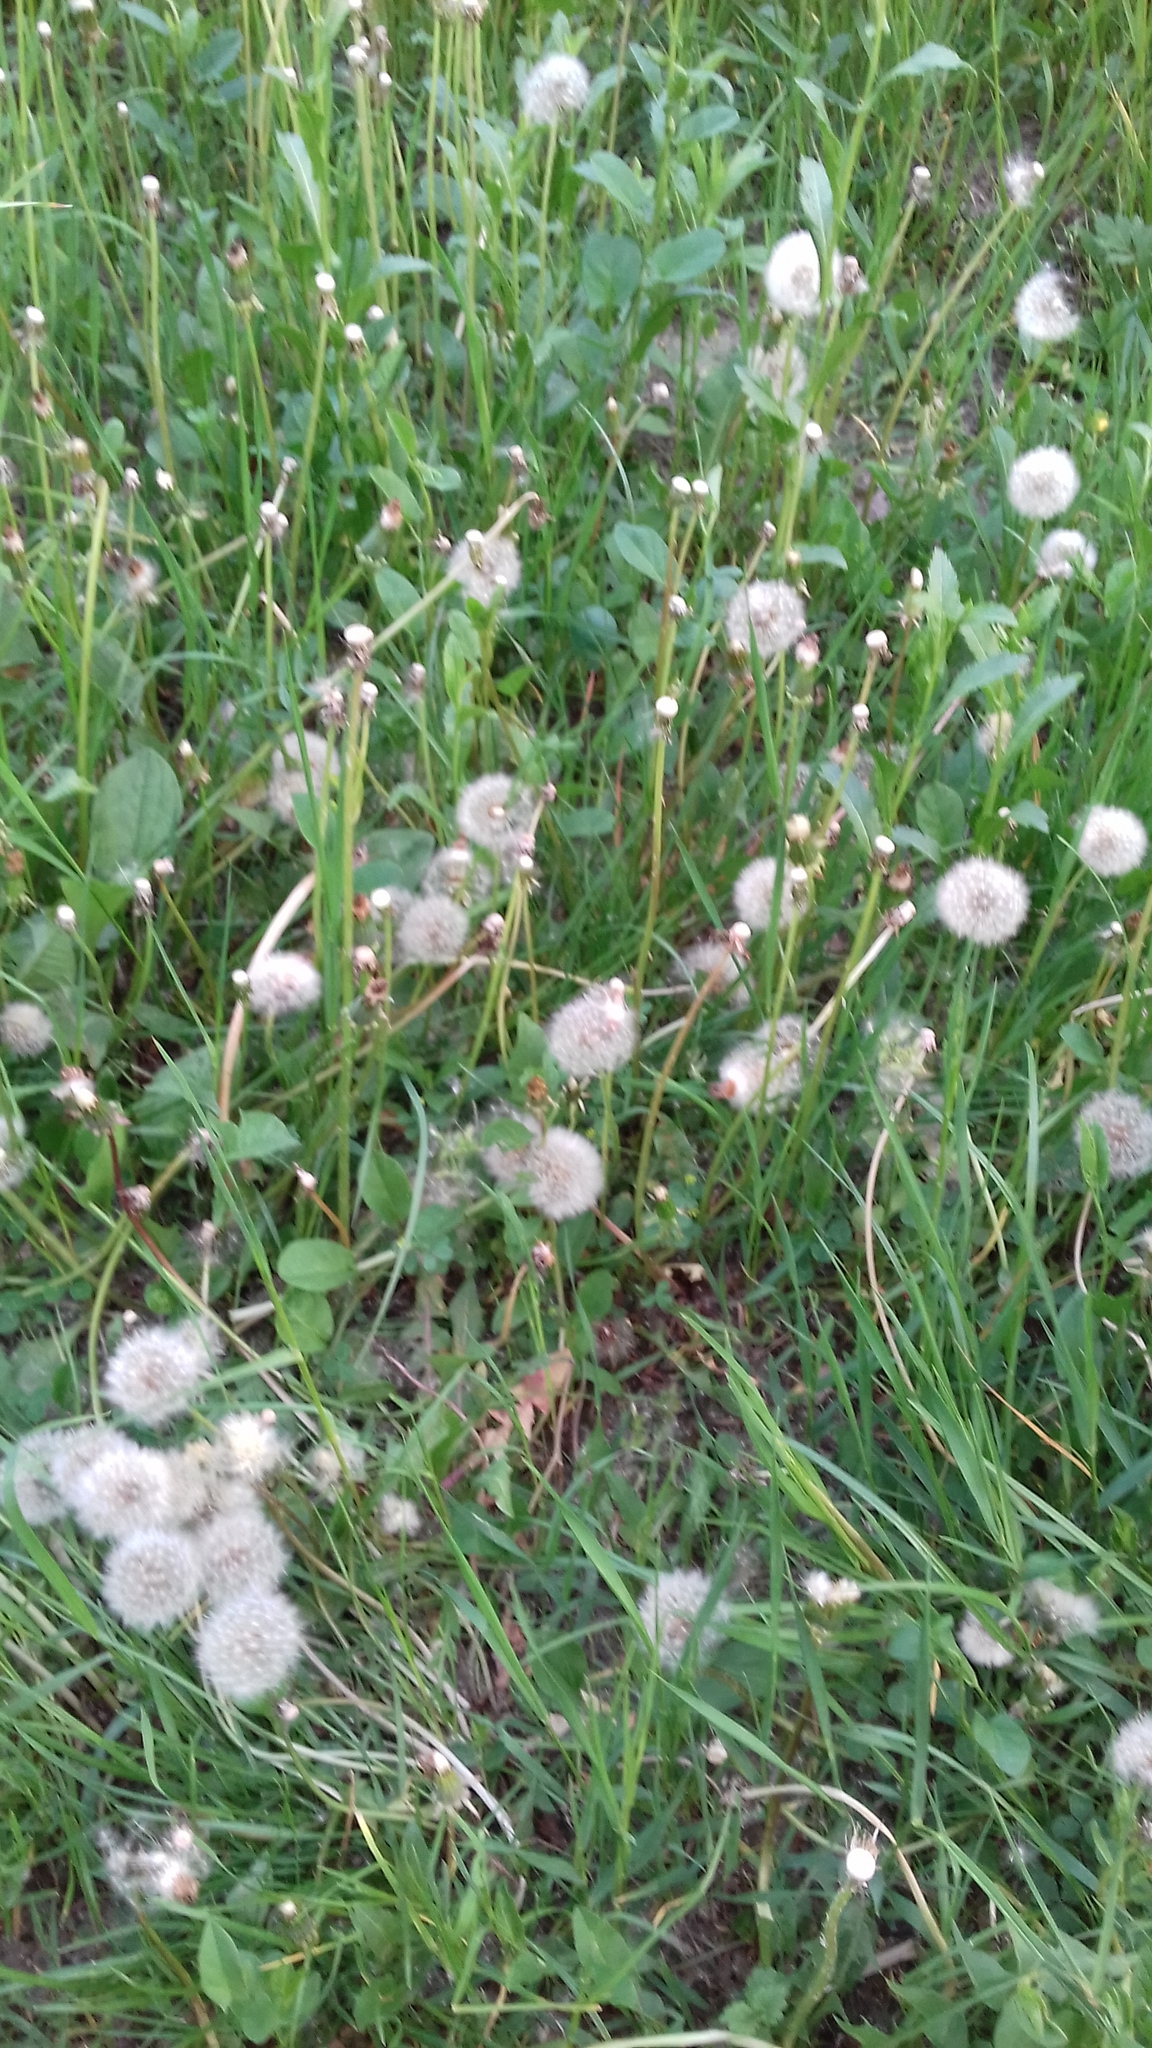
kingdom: Plantae
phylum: Tracheophyta
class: Magnoliopsida
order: Asterales
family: Asteraceae
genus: Taraxacum
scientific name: Taraxacum officinale
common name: Common dandelion
